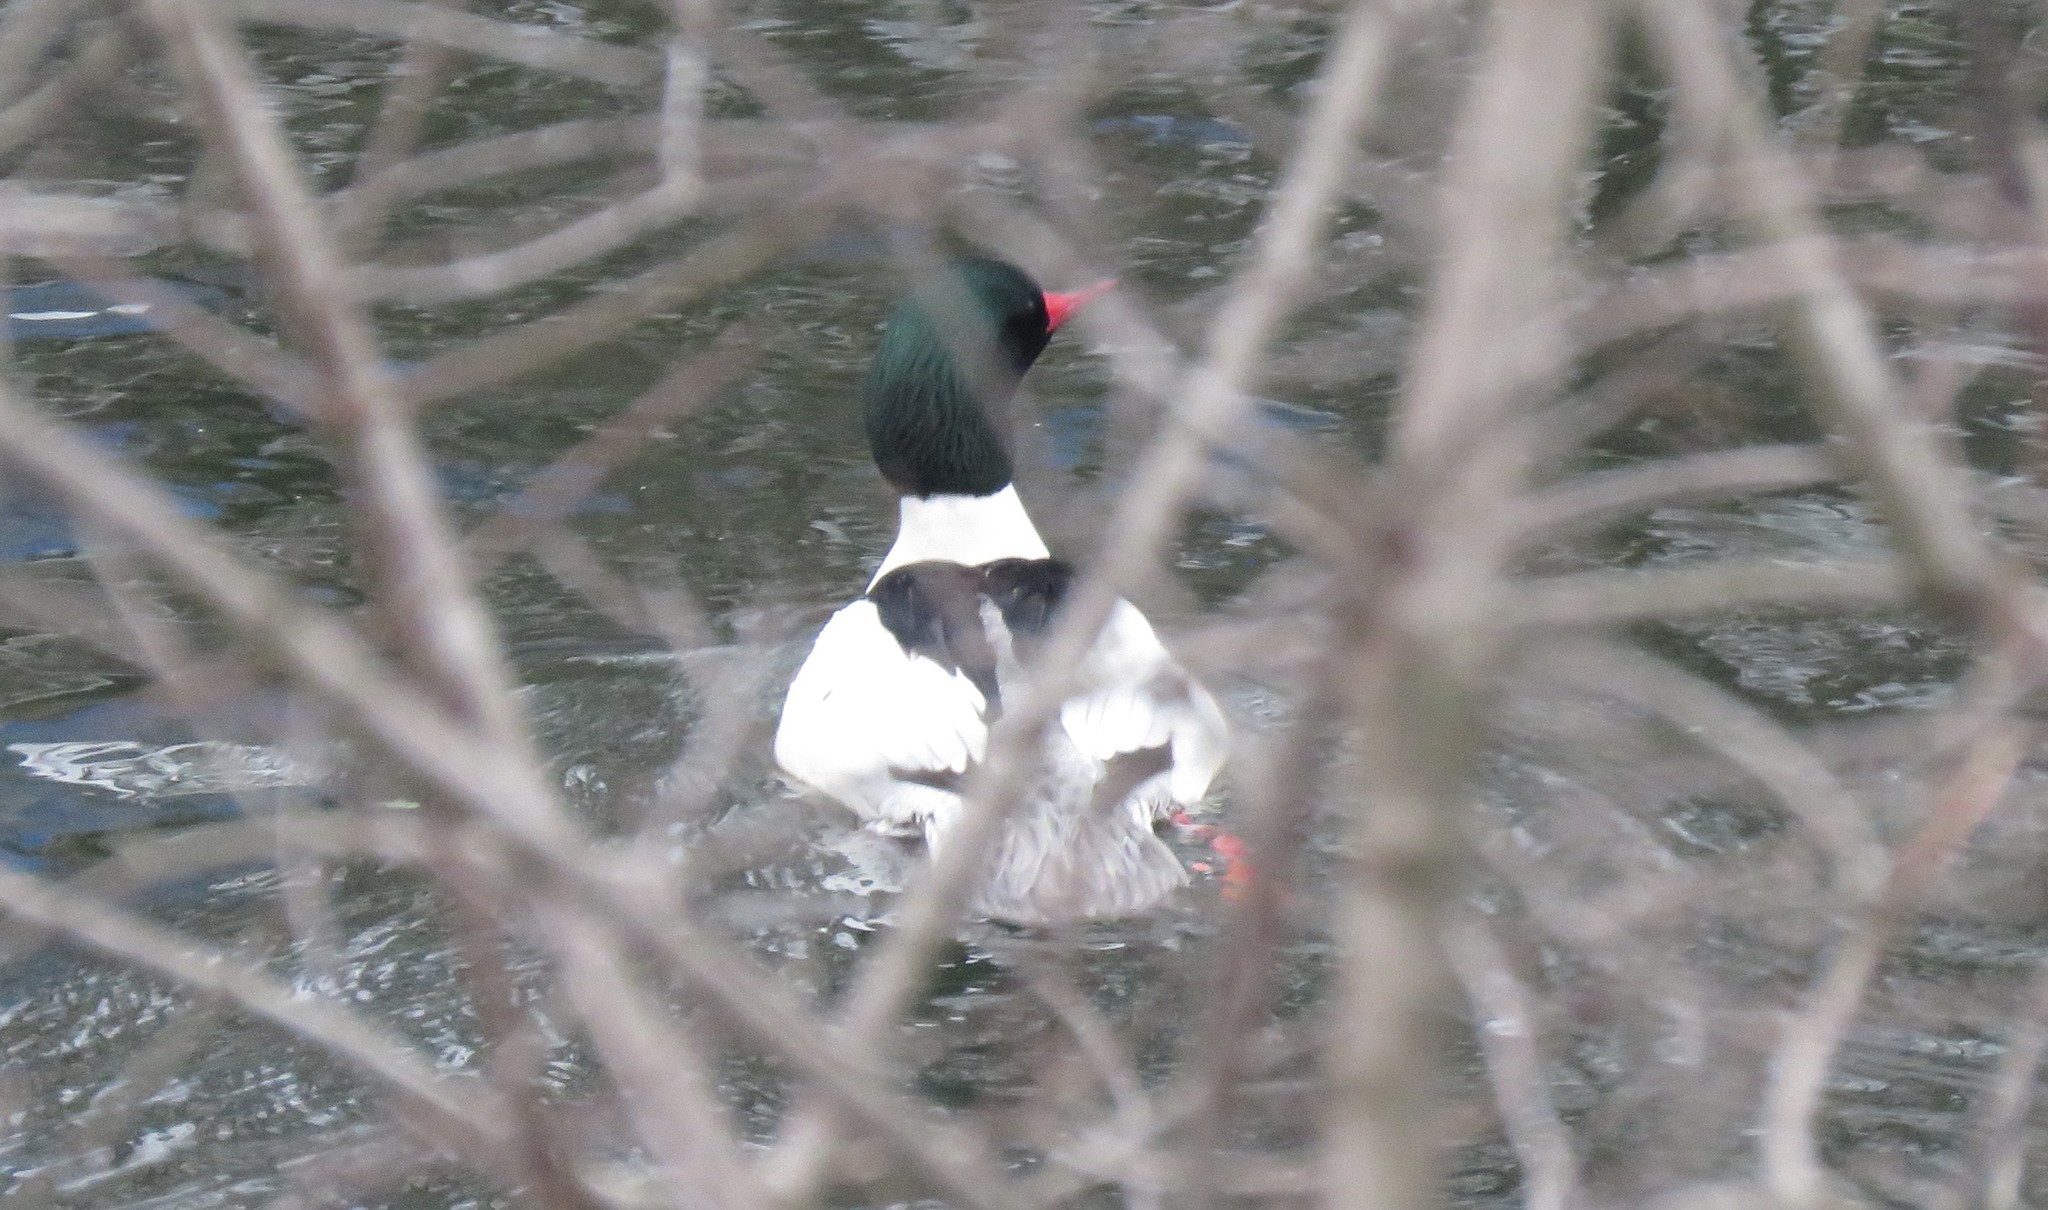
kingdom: Animalia
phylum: Chordata
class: Aves
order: Anseriformes
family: Anatidae
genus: Mergus
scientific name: Mergus merganser
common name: Common merganser
